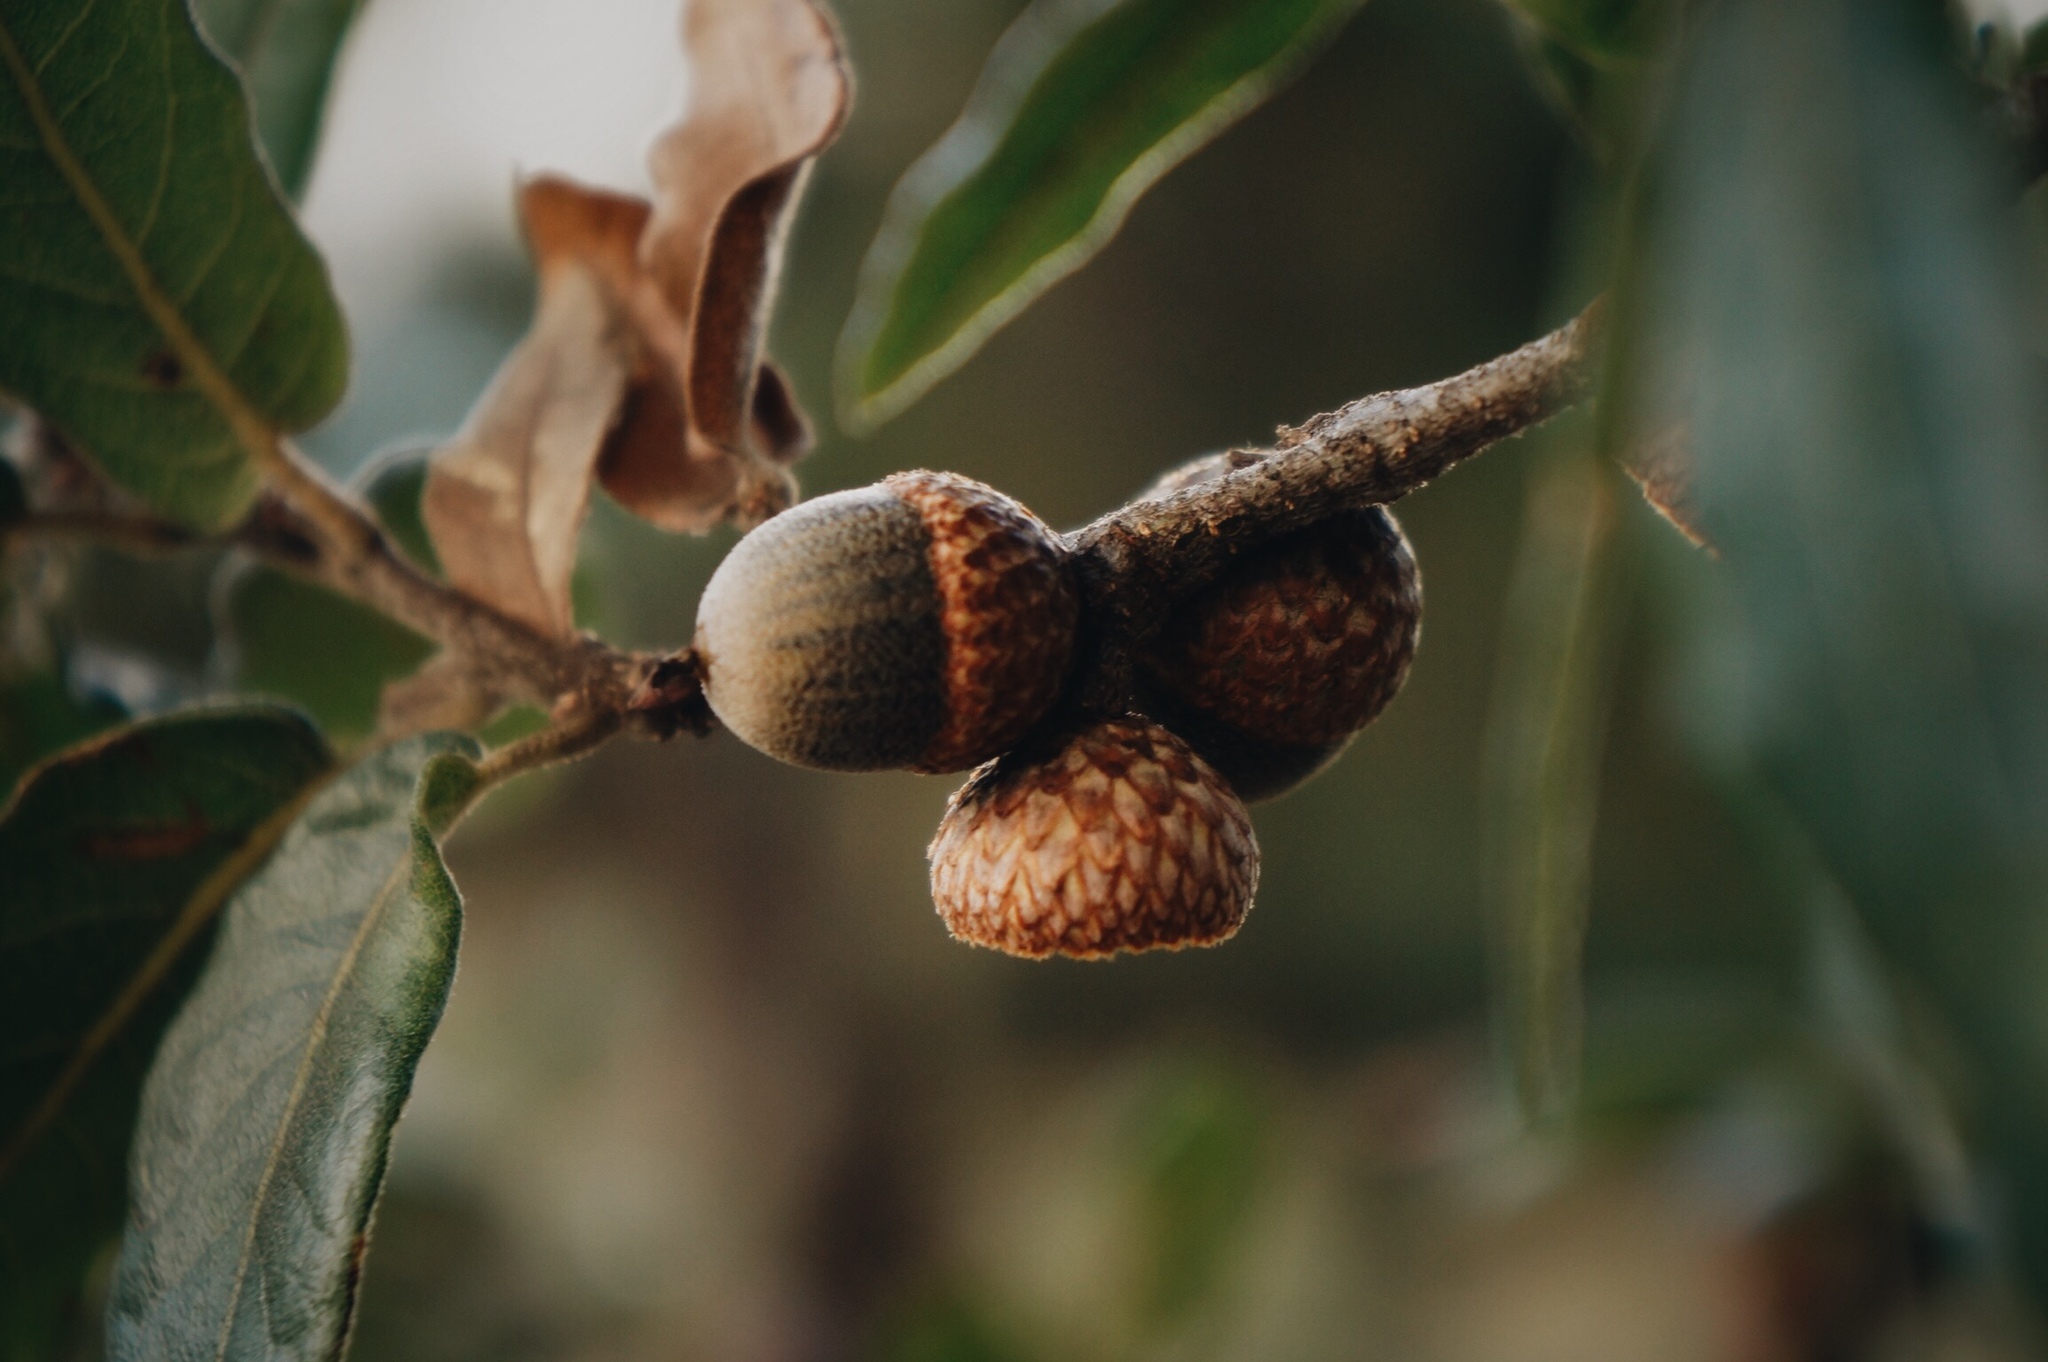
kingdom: Plantae
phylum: Tracheophyta
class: Magnoliopsida
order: Fagales
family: Fagaceae
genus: Quercus
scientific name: Quercus mexicana
